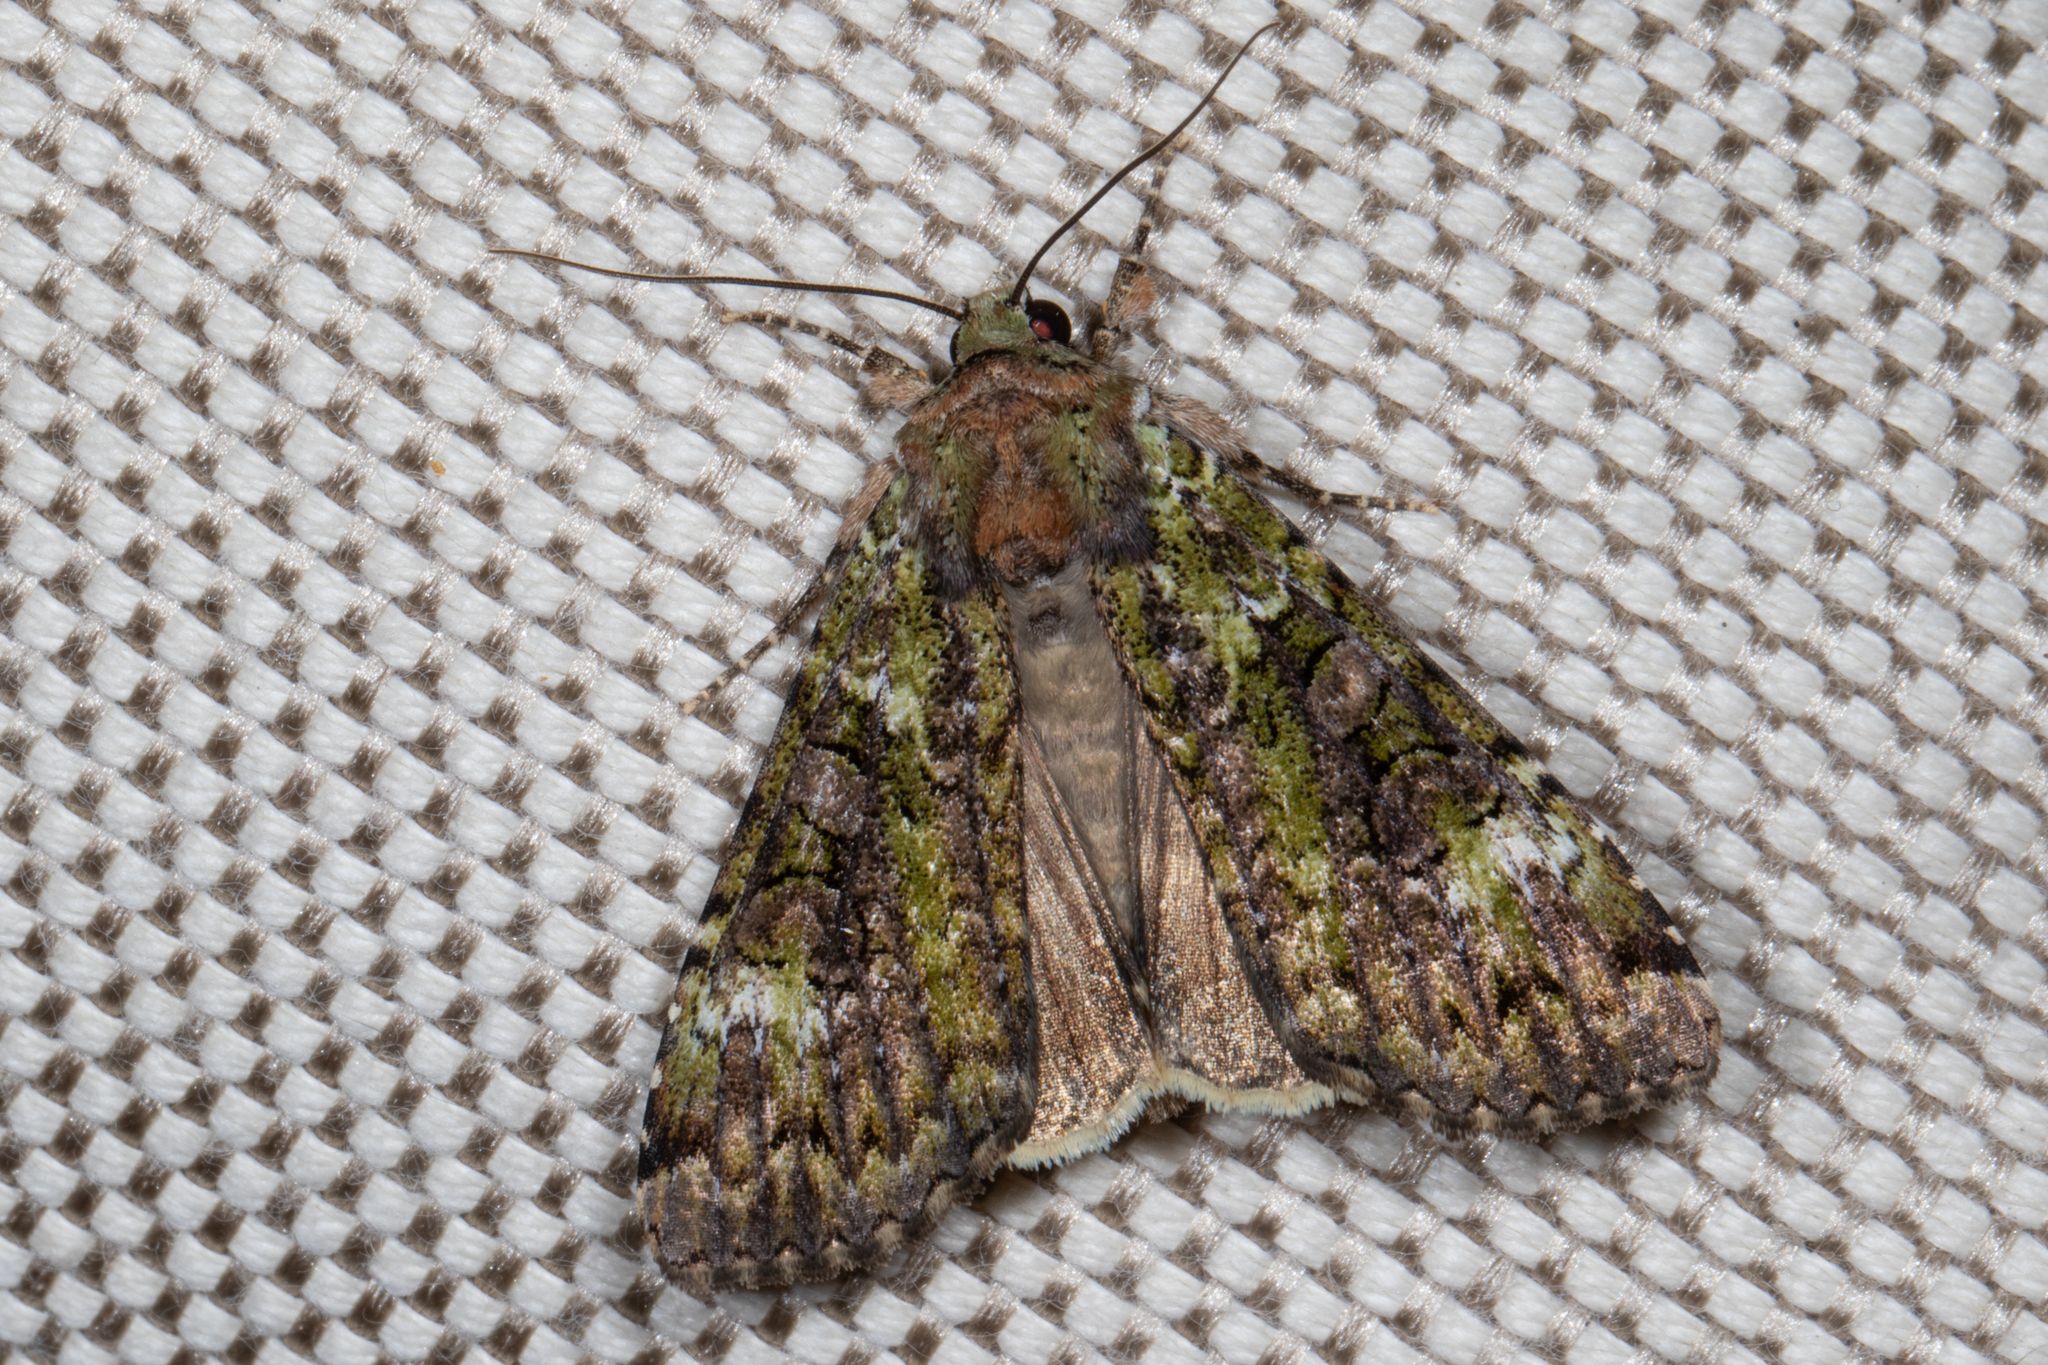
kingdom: Animalia
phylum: Arthropoda
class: Insecta
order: Lepidoptera
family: Noctuidae
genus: Anaplectoides
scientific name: Anaplectoides prasina
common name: Green arches
